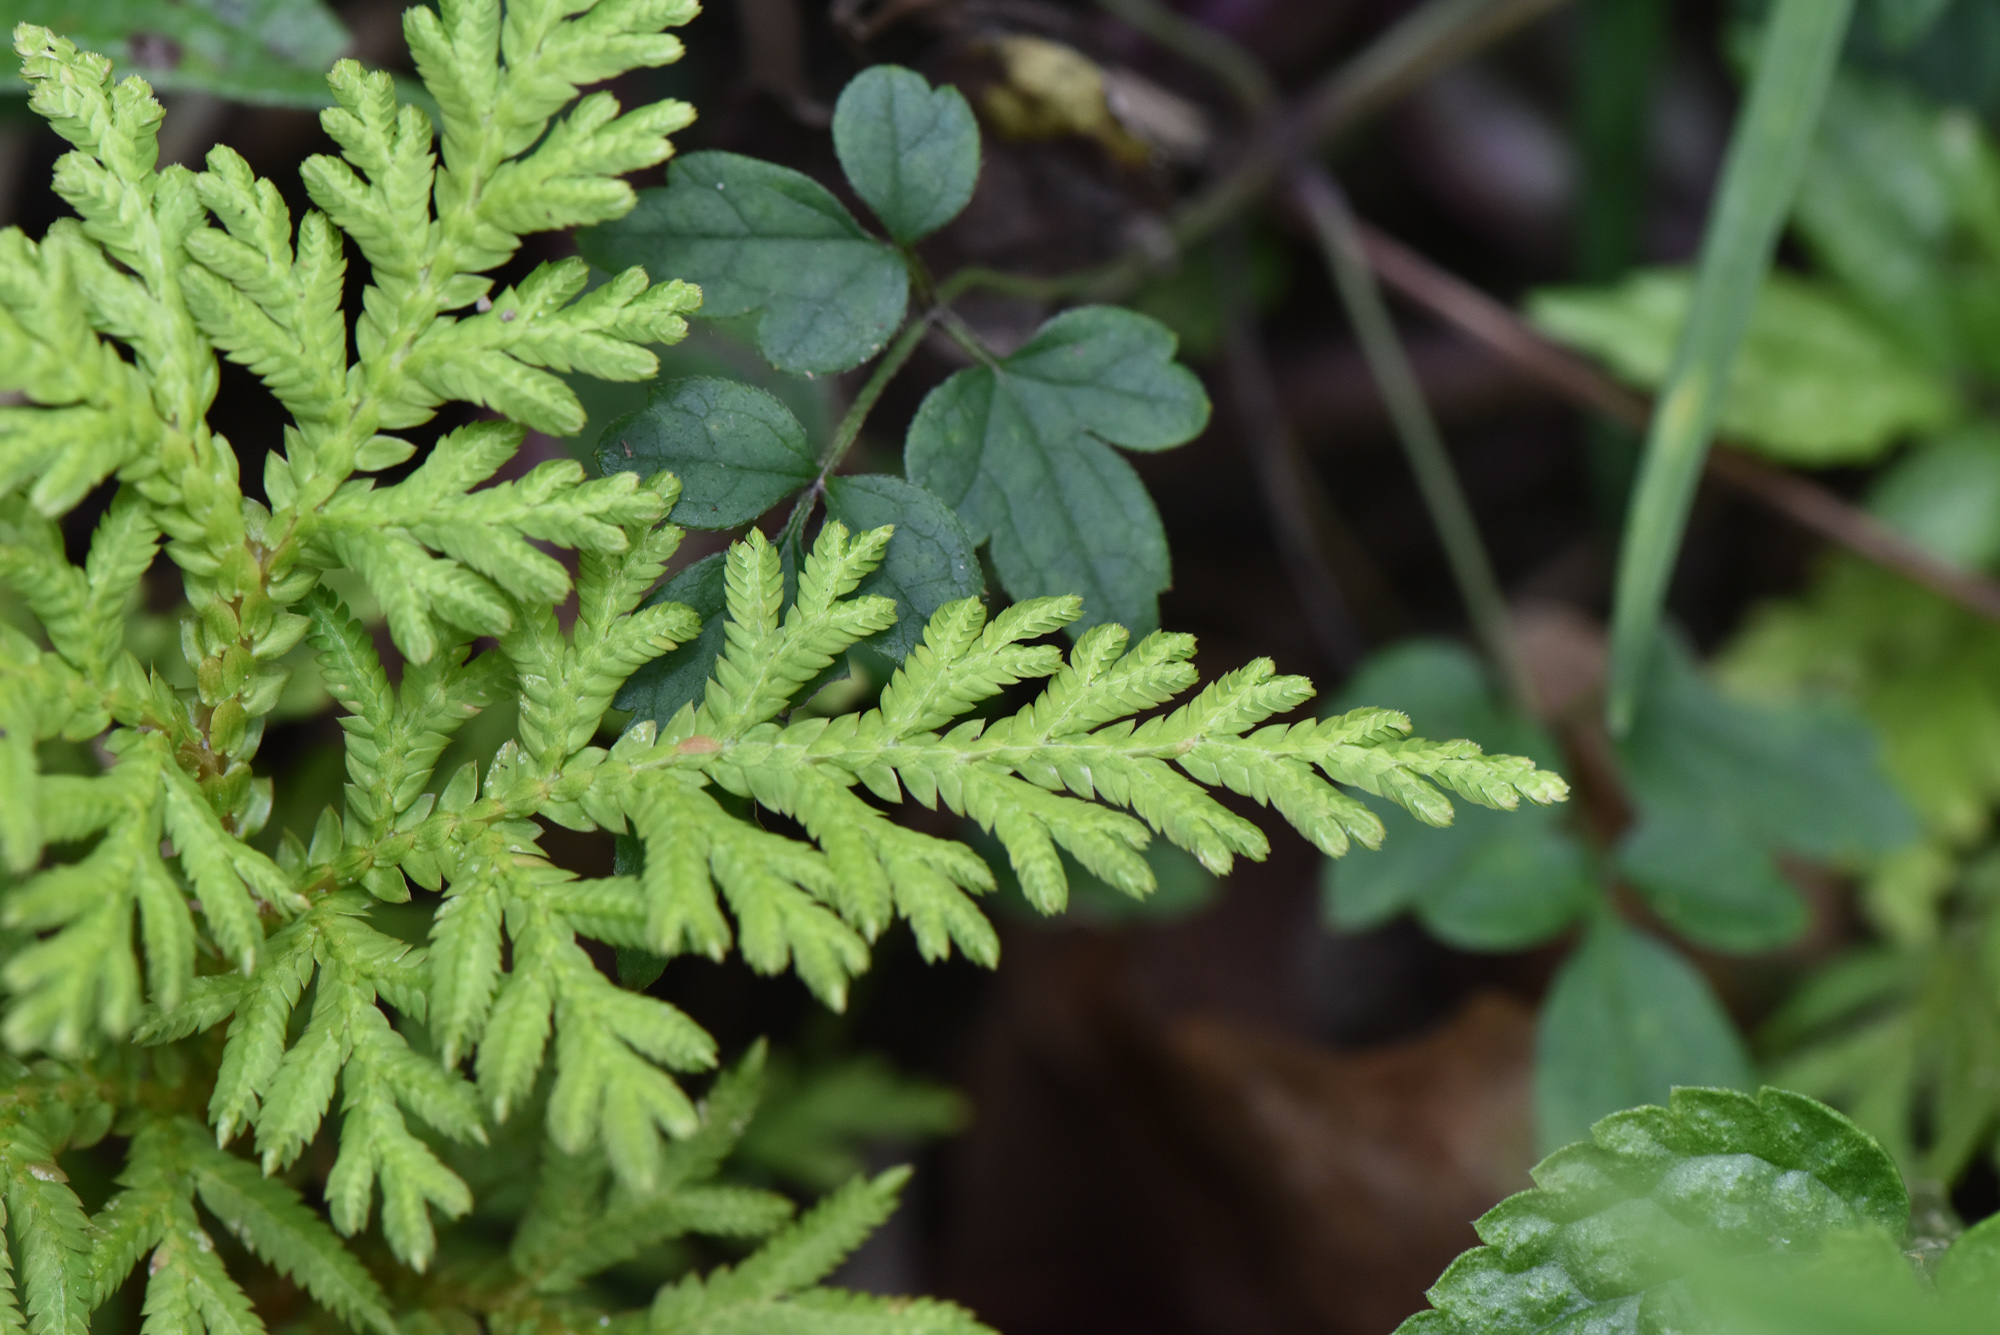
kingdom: Plantae
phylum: Tracheophyta
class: Lycopodiopsida
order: Selaginellales
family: Selaginellaceae
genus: Selaginella
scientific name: Selaginella delicatula
